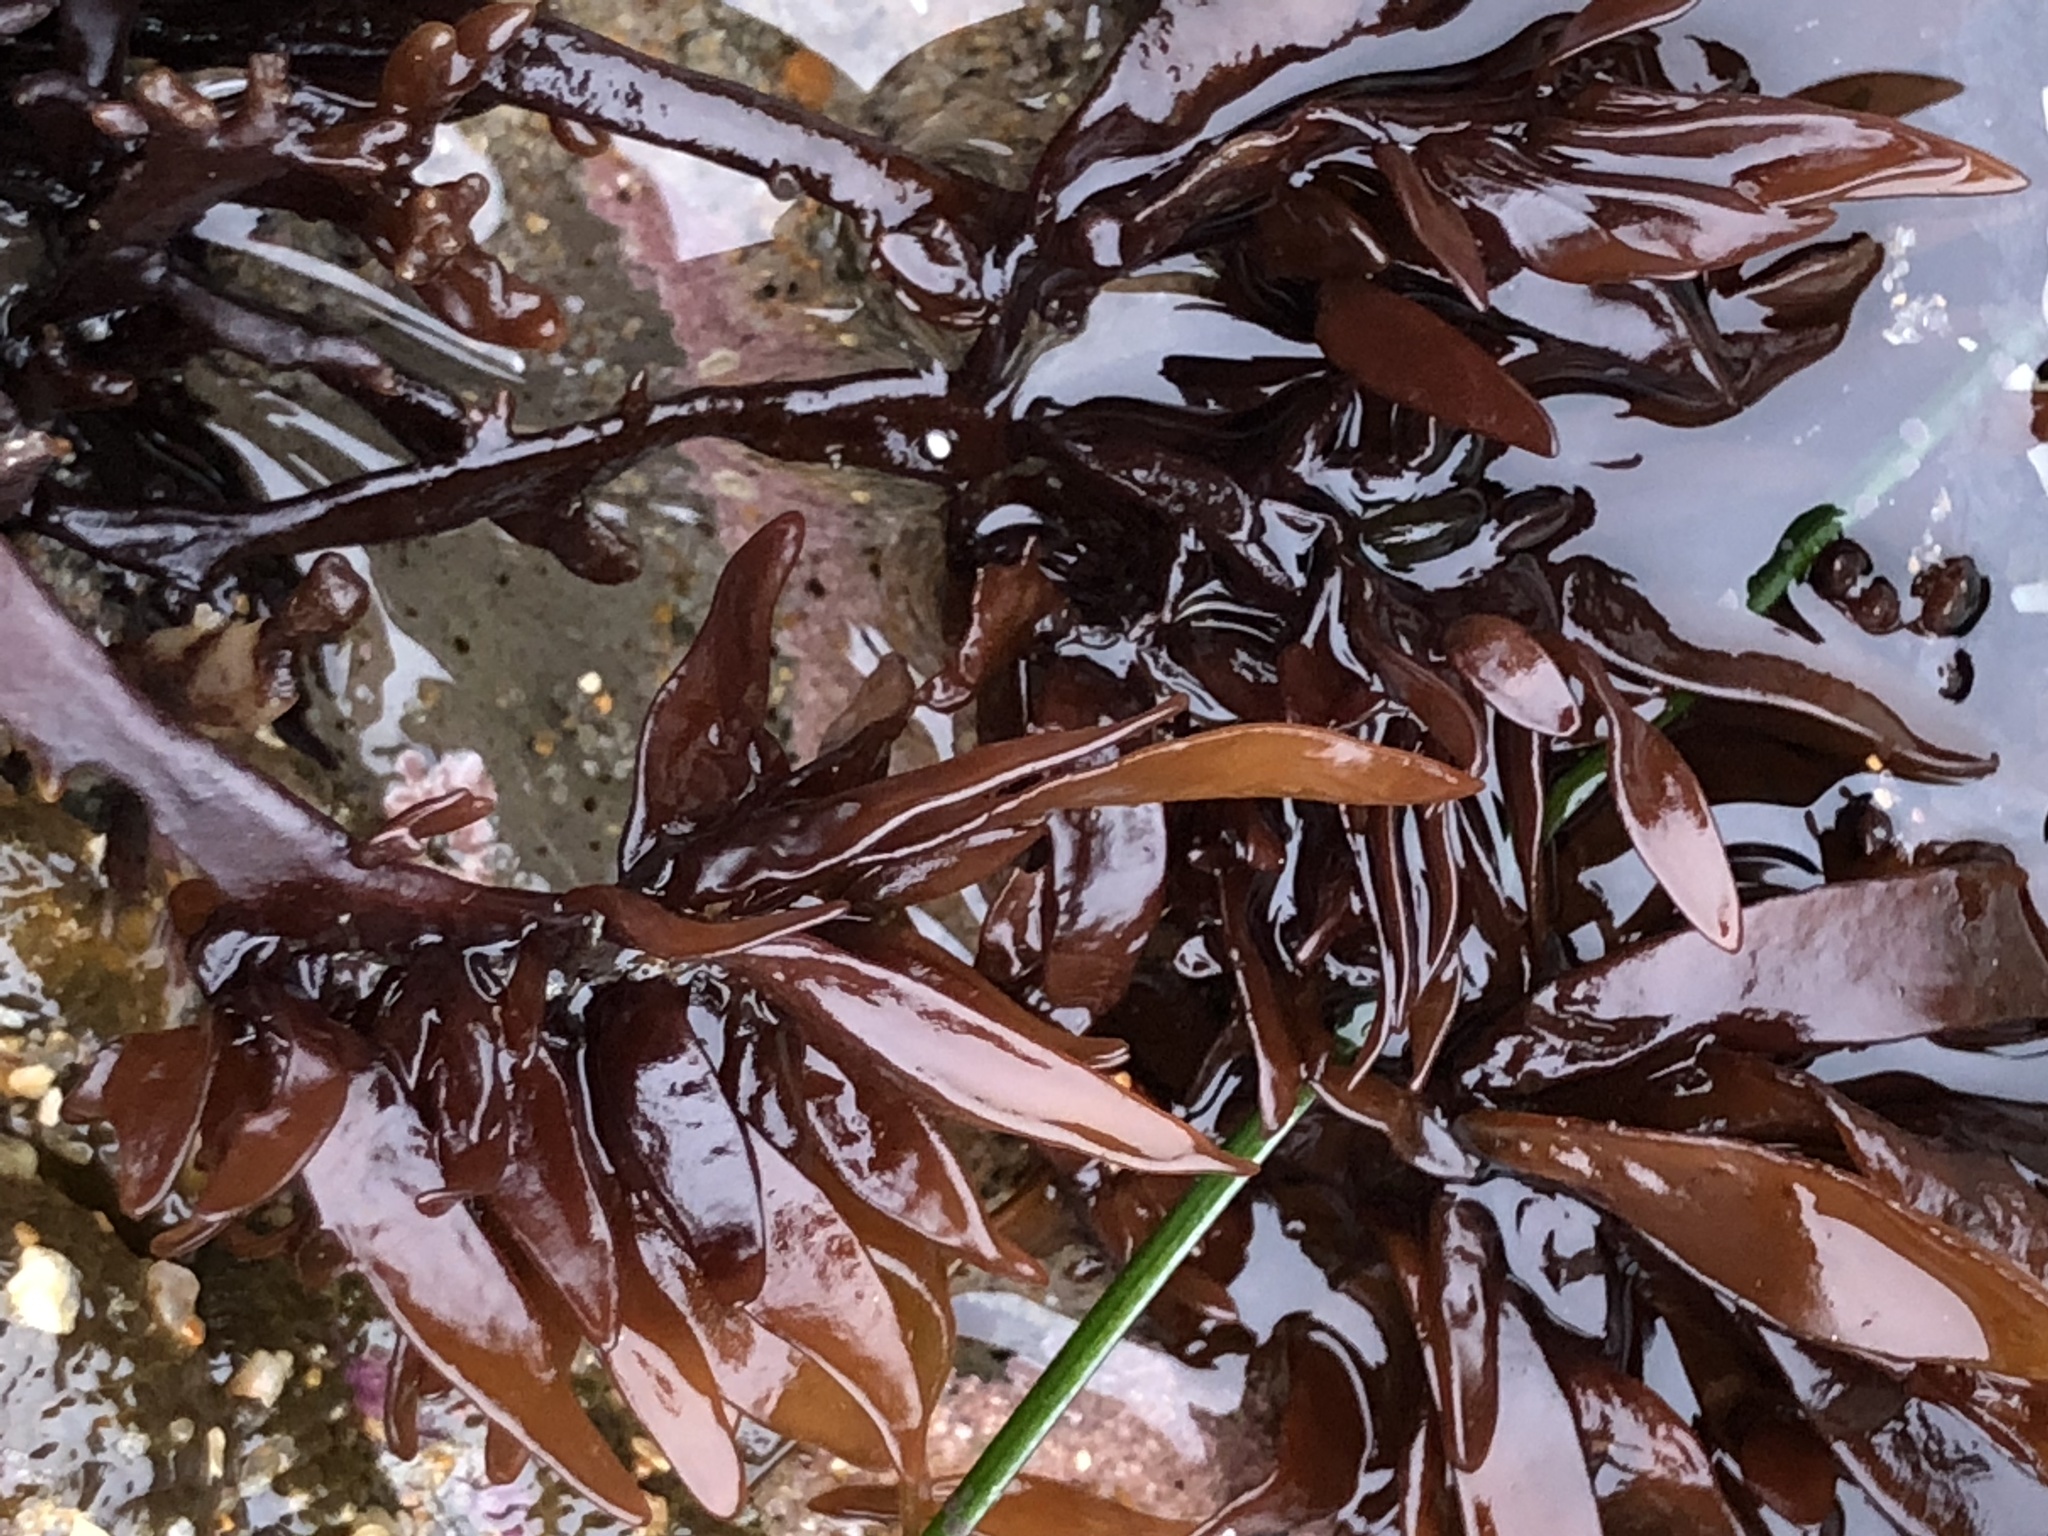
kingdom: Plantae
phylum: Rhodophyta
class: Florideophyceae
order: Halymeniales
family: Halymeniaceae
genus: Grateloupia
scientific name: Grateloupia Prionitis lanceolata
